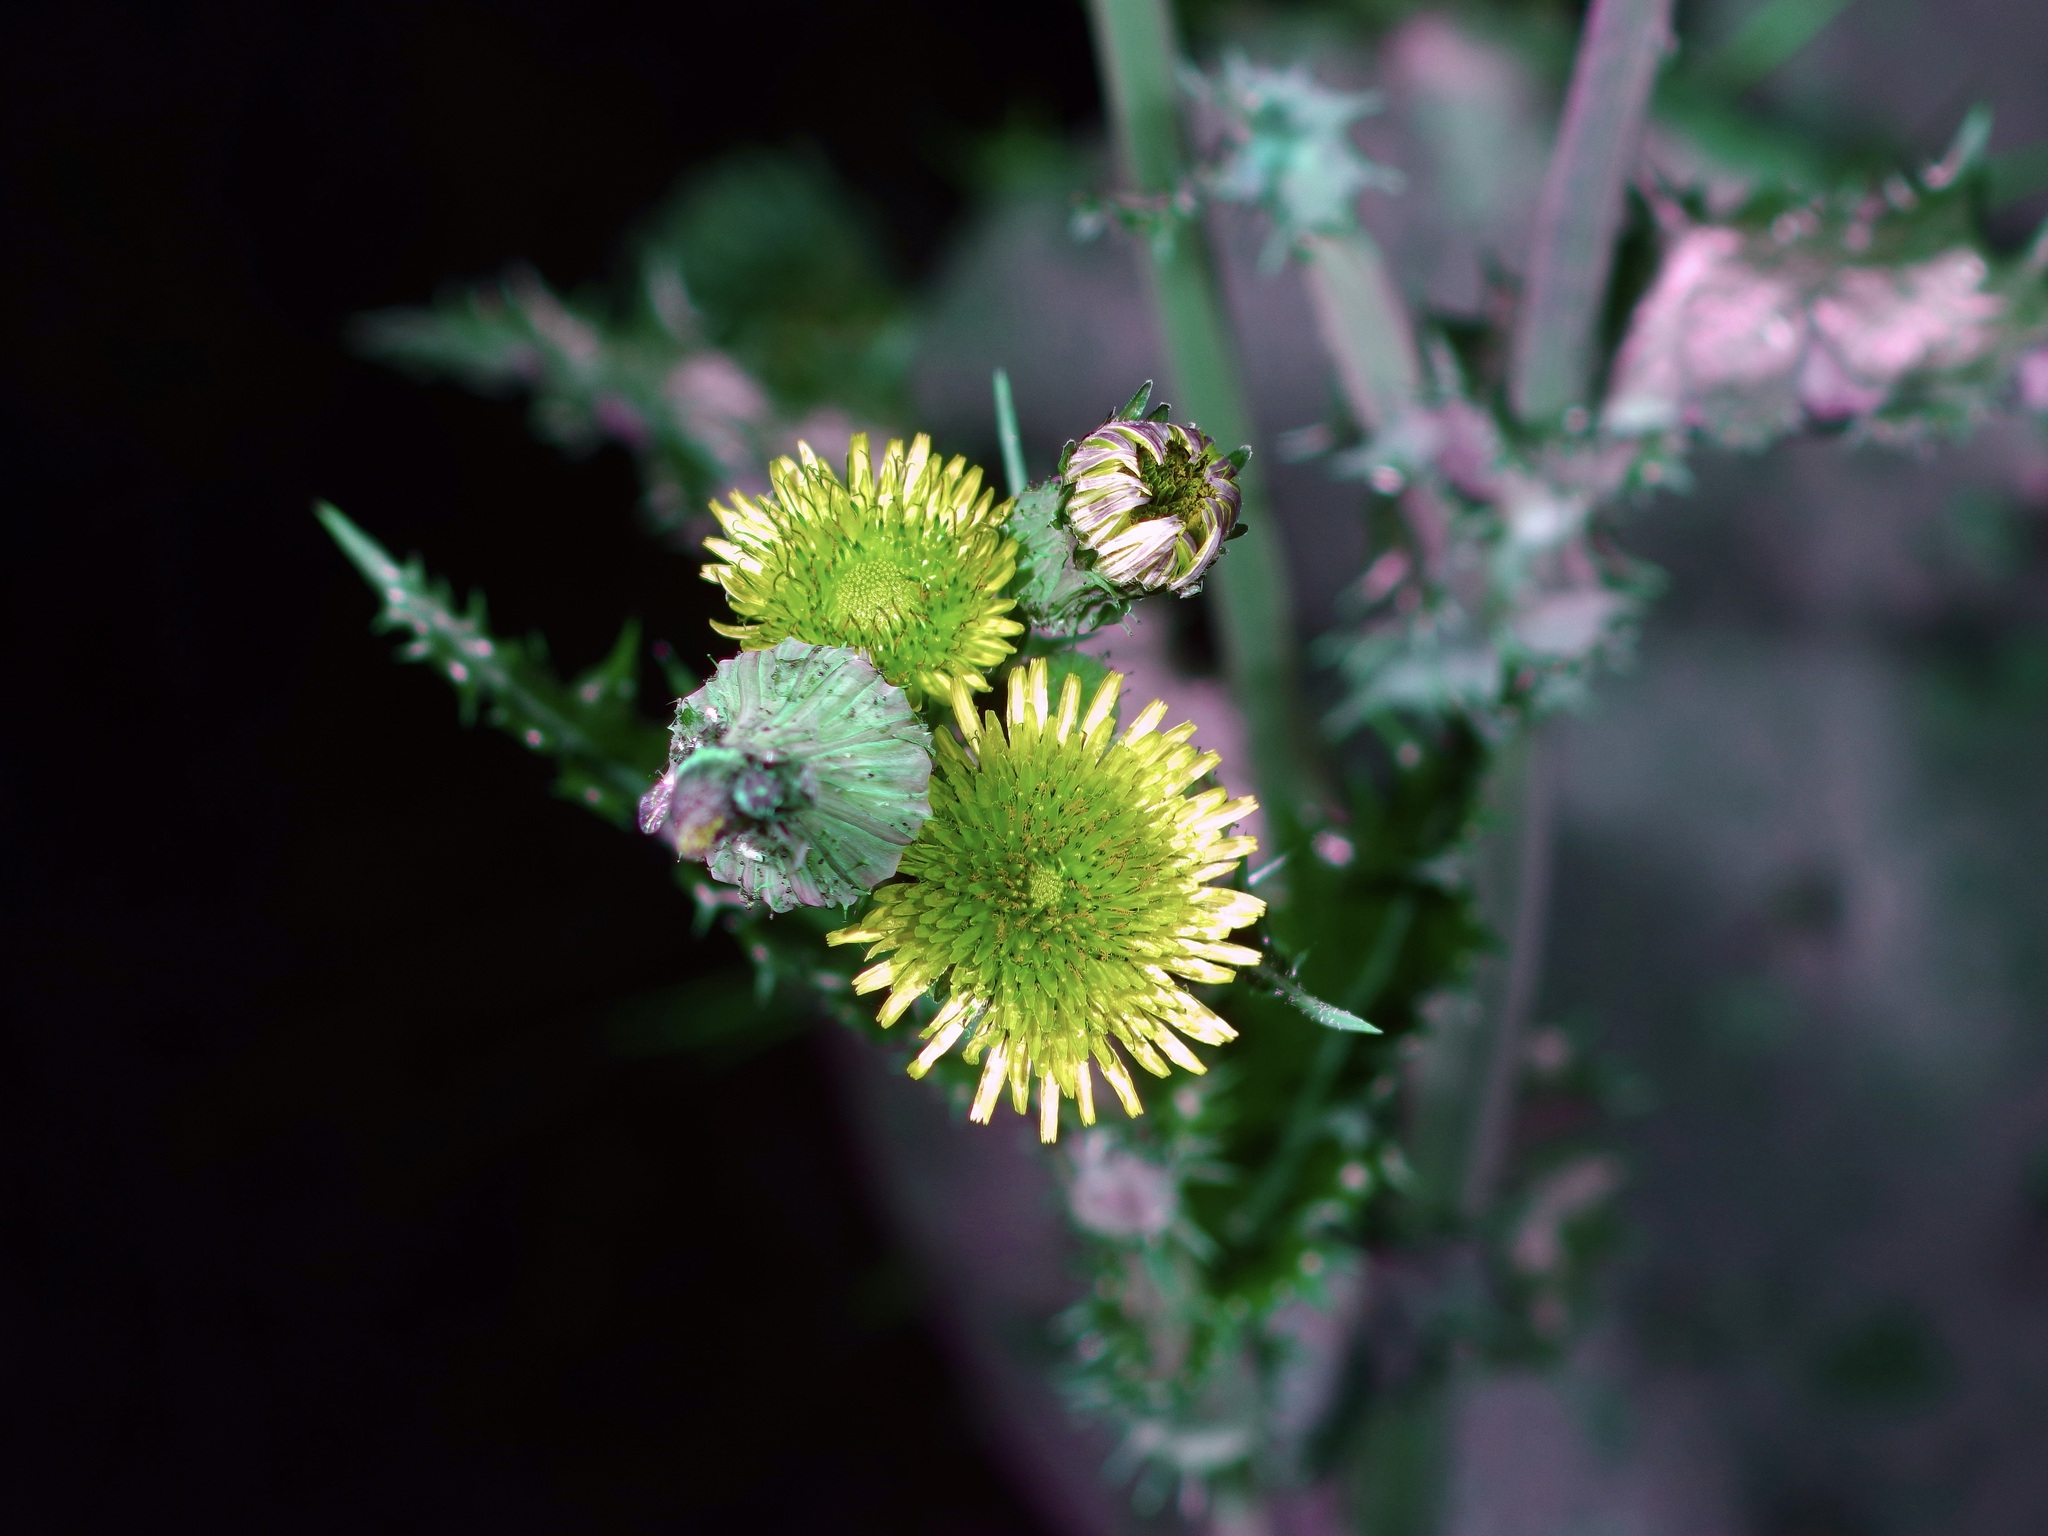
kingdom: Plantae
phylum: Tracheophyta
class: Magnoliopsida
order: Asterales
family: Asteraceae
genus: Sonchus
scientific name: Sonchus asper
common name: Prickly sow-thistle
